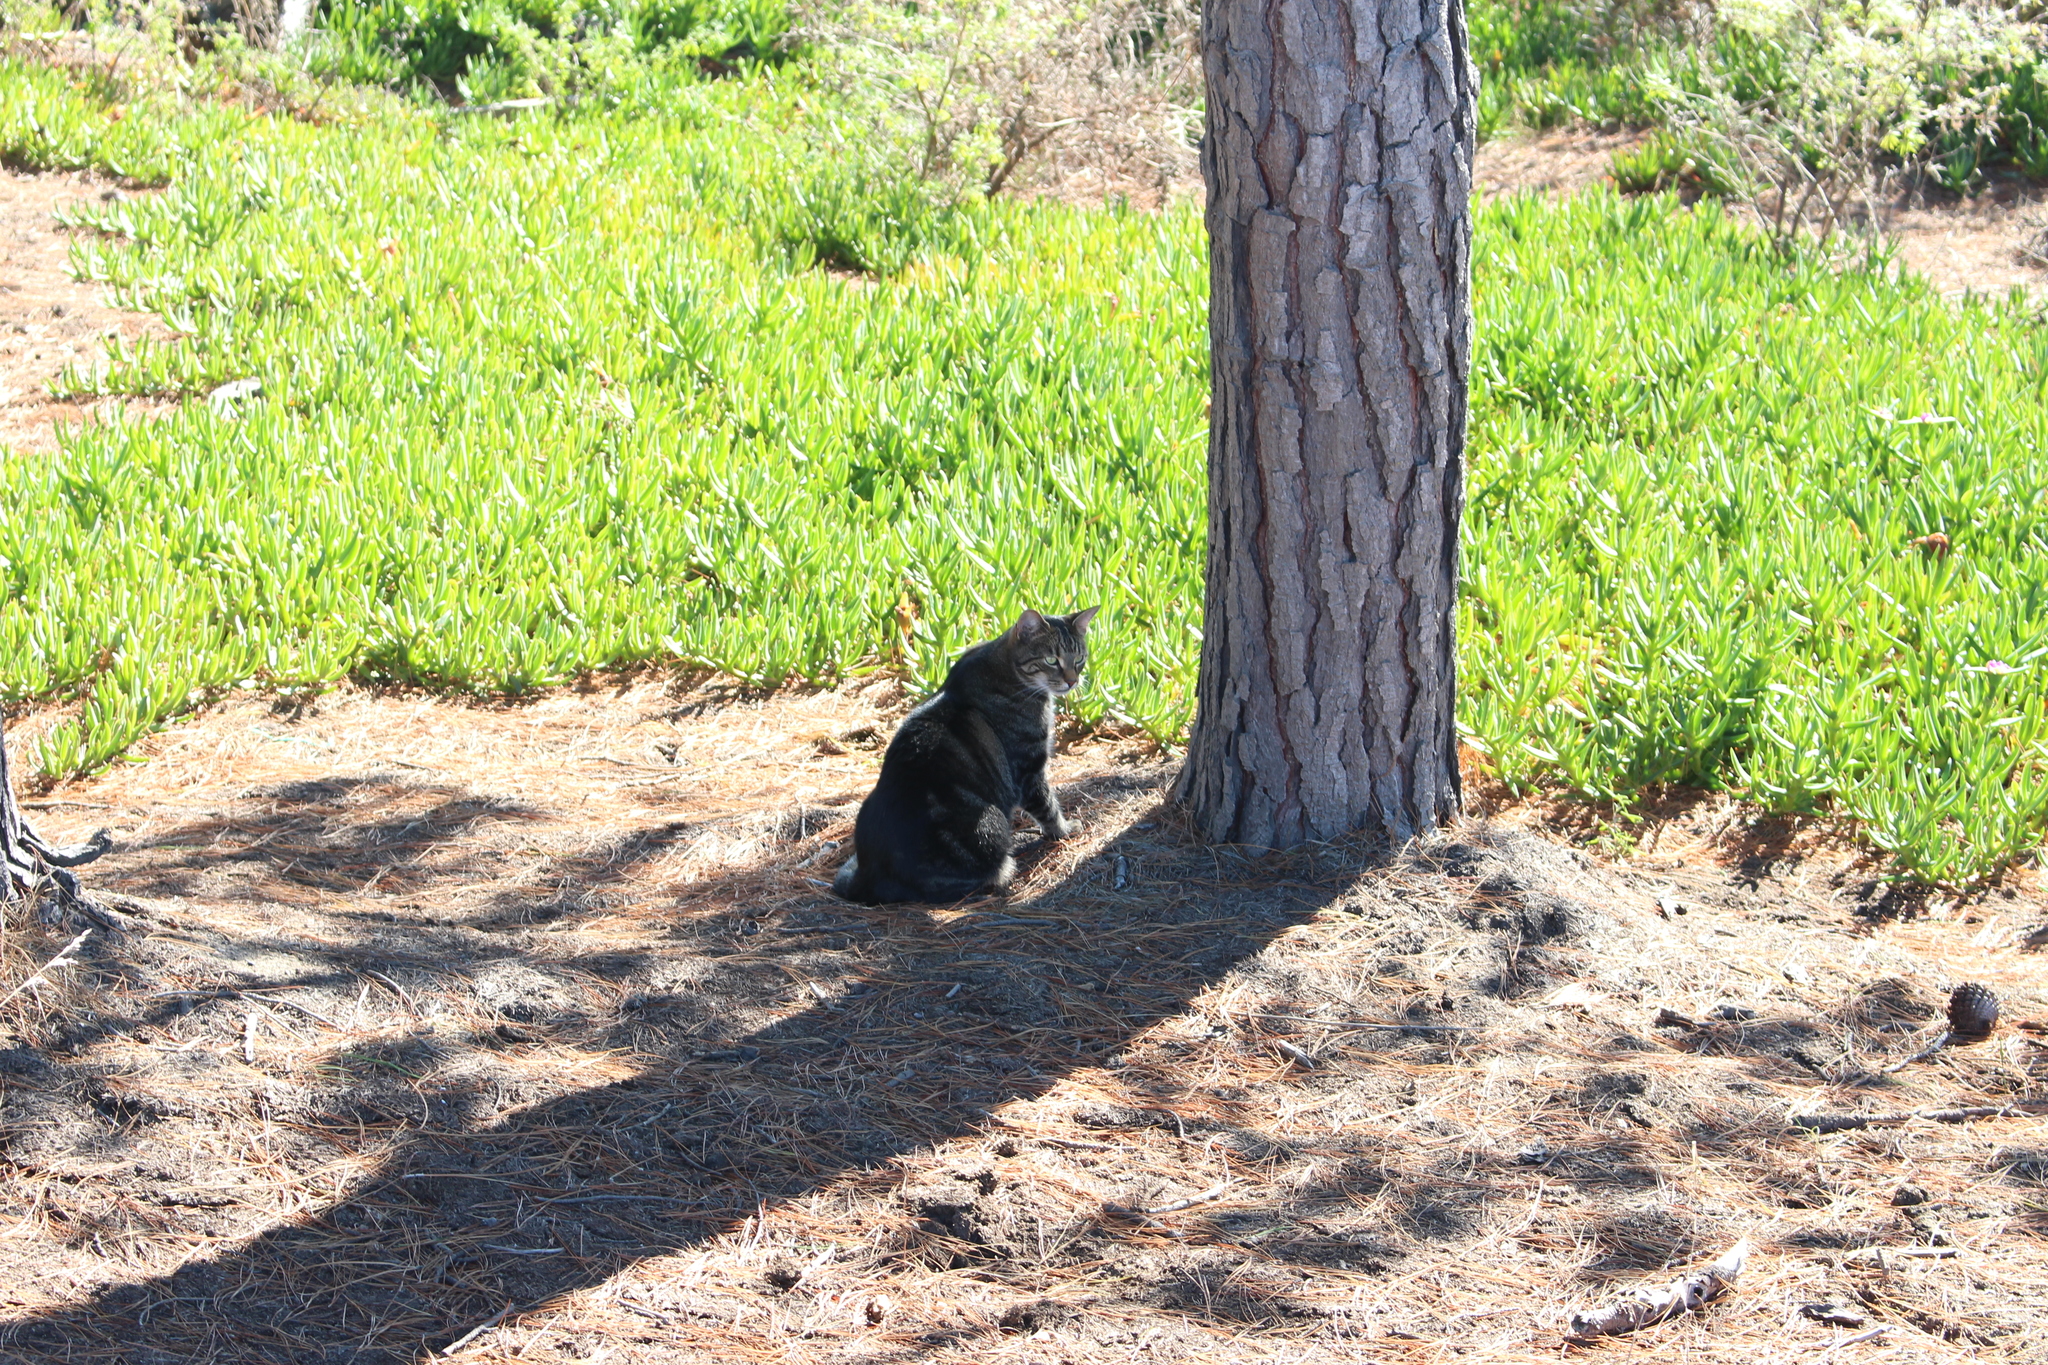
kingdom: Animalia
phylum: Chordata
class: Mammalia
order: Carnivora
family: Felidae
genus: Felis
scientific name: Felis catus
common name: Domestic cat
